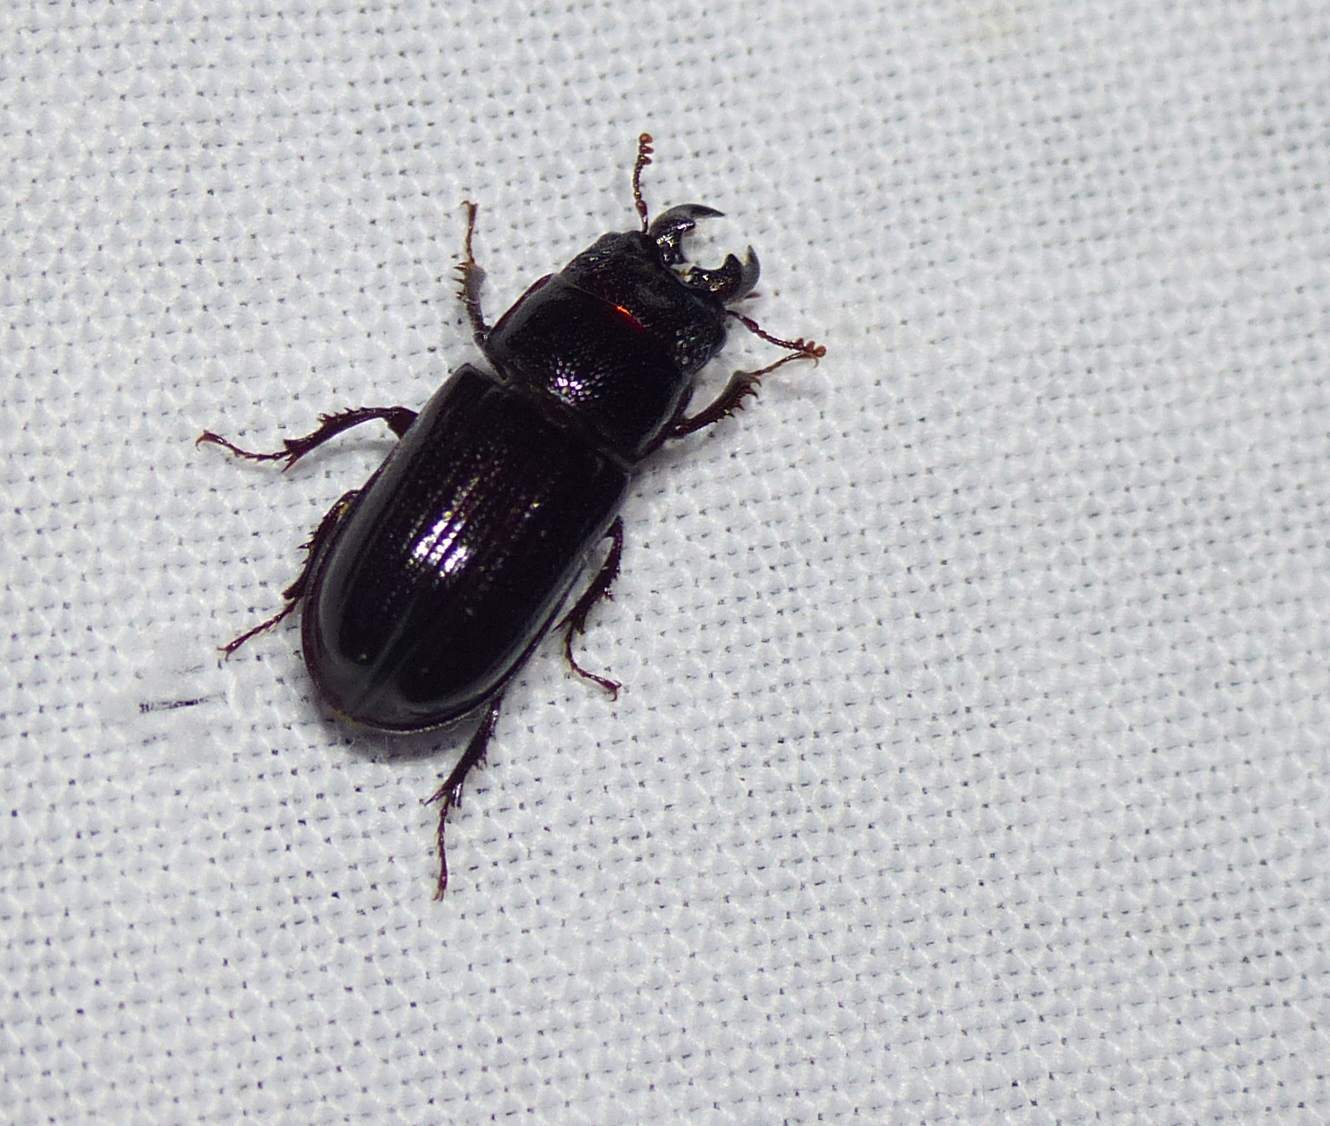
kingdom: Animalia
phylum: Arthropoda
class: Insecta
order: Coleoptera
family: Lucanidae
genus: Ceruchus
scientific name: Ceruchus piceus
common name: Red-rot decay stag beetle
